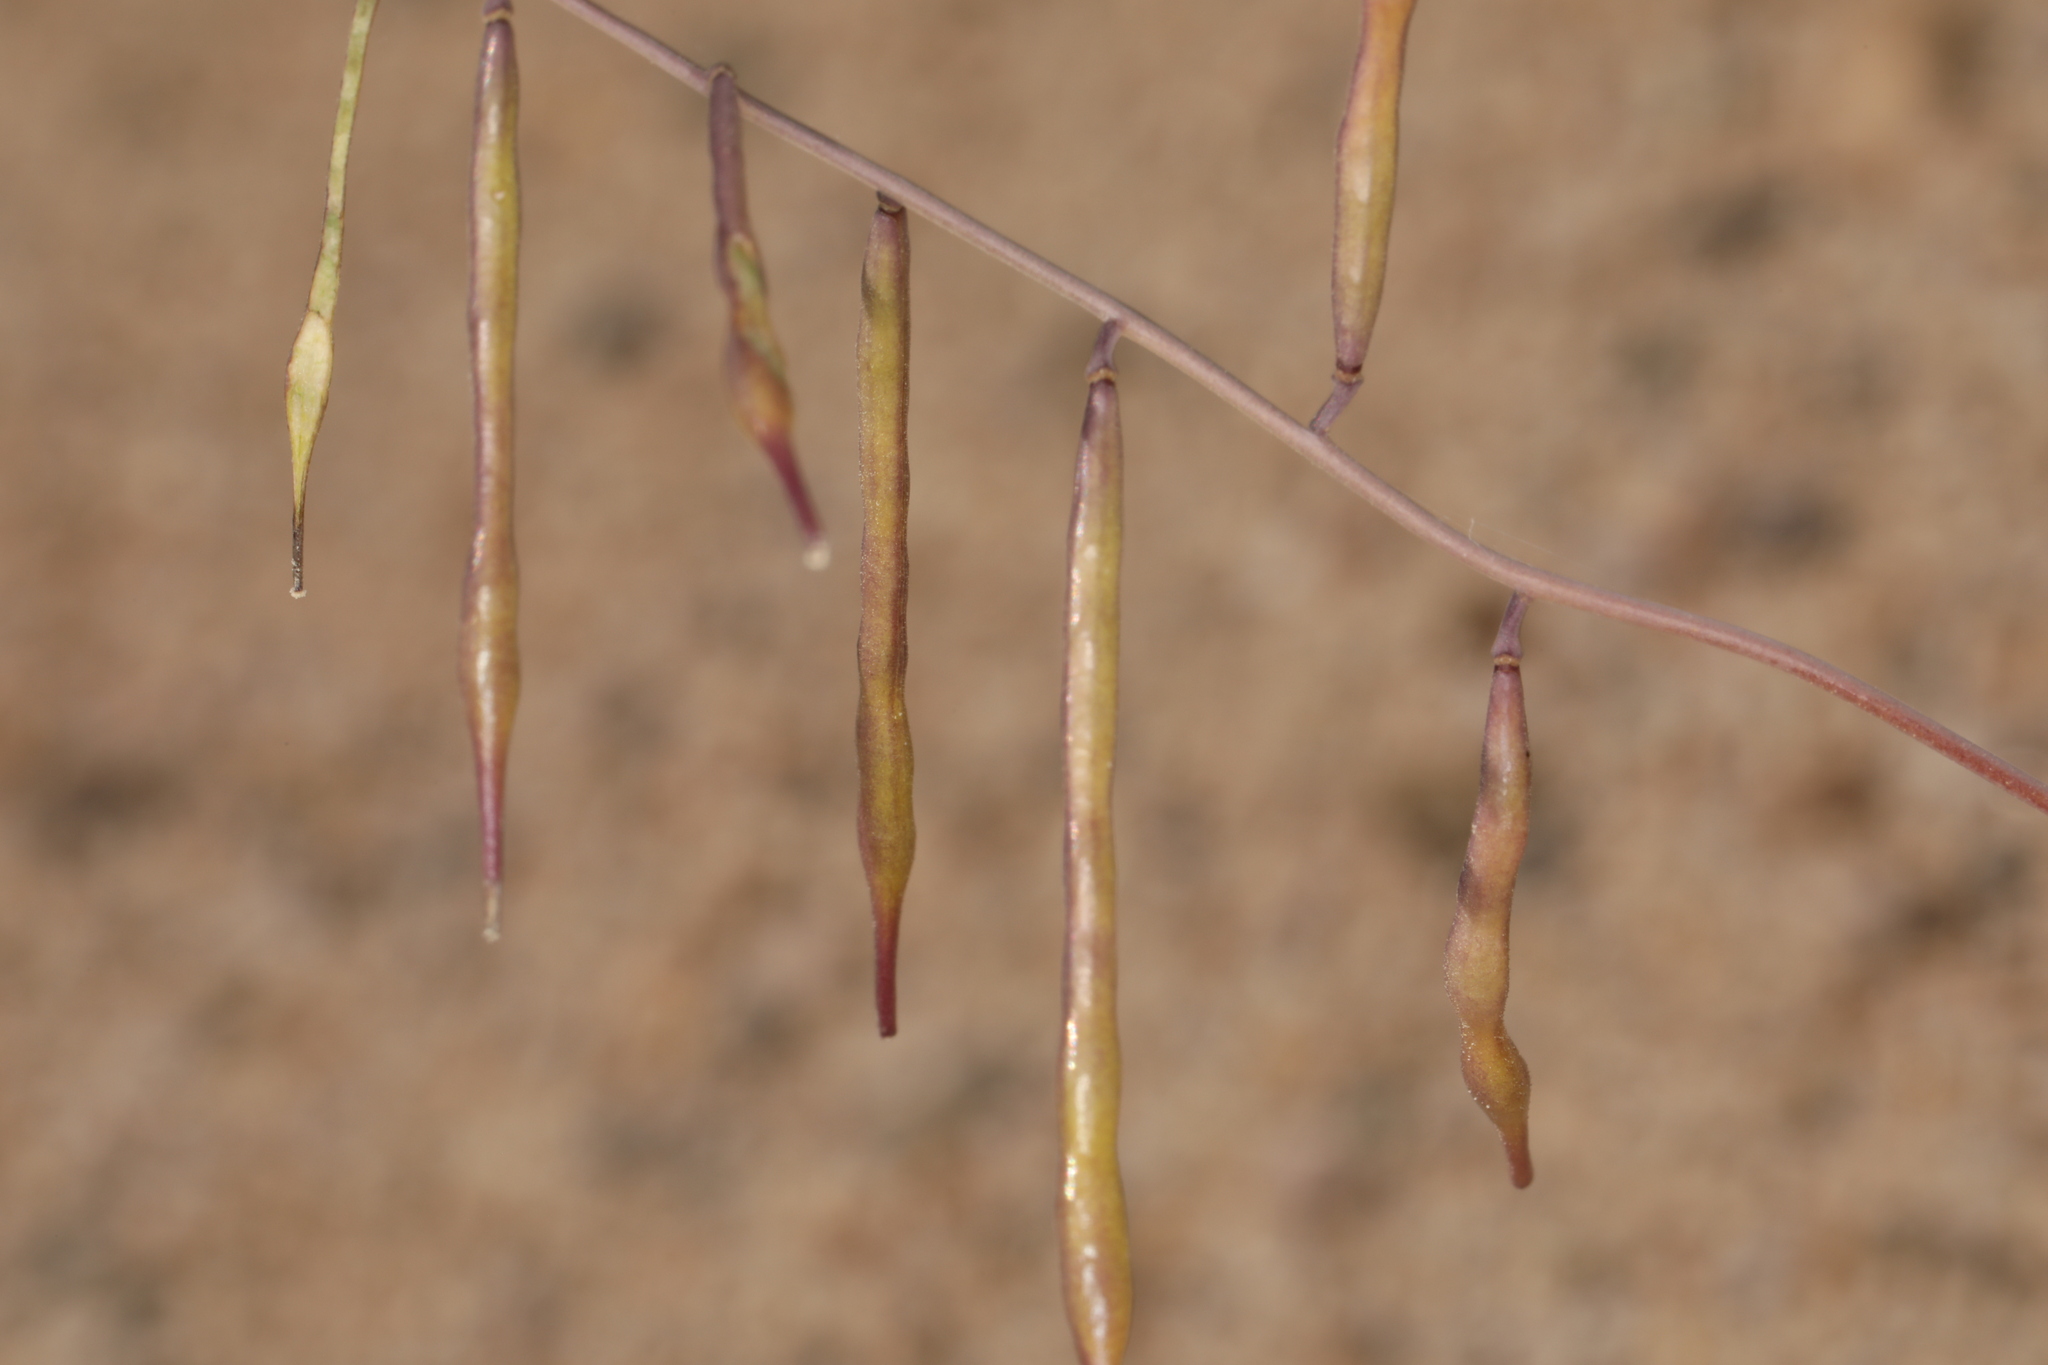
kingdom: Plantae
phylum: Tracheophyta
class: Magnoliopsida
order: Brassicales
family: Brassicaceae
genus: Streptanthus
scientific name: Streptanthus longirostris
